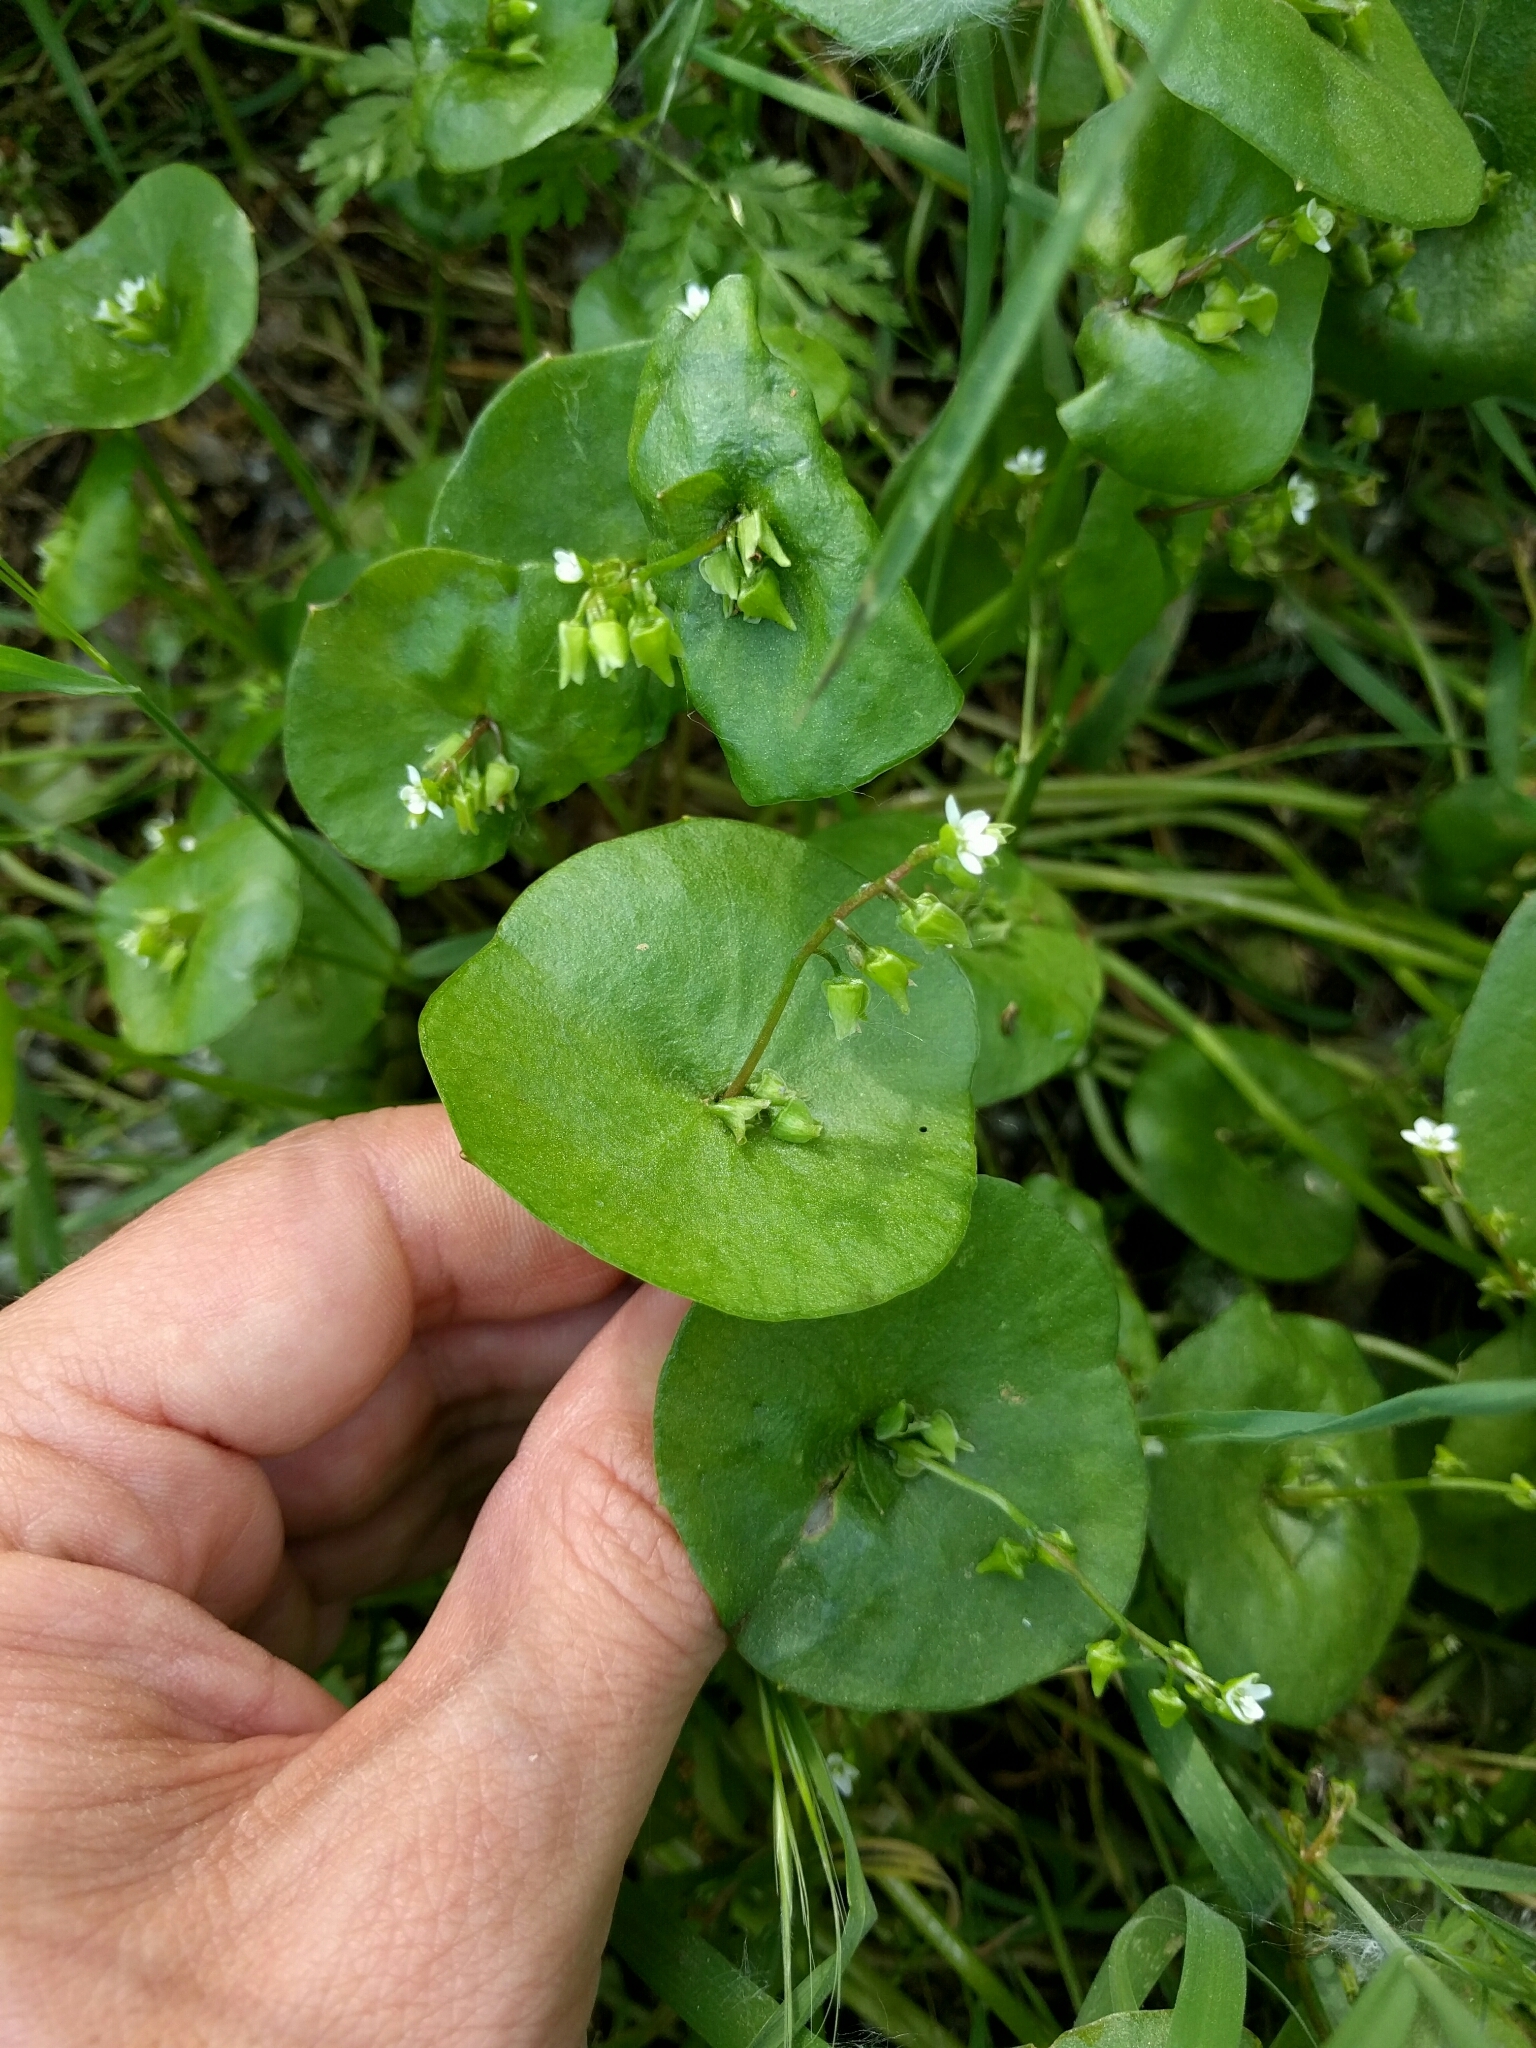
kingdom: Plantae
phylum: Tracheophyta
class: Magnoliopsida
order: Caryophyllales
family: Montiaceae
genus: Claytonia
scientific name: Claytonia perfoliata
